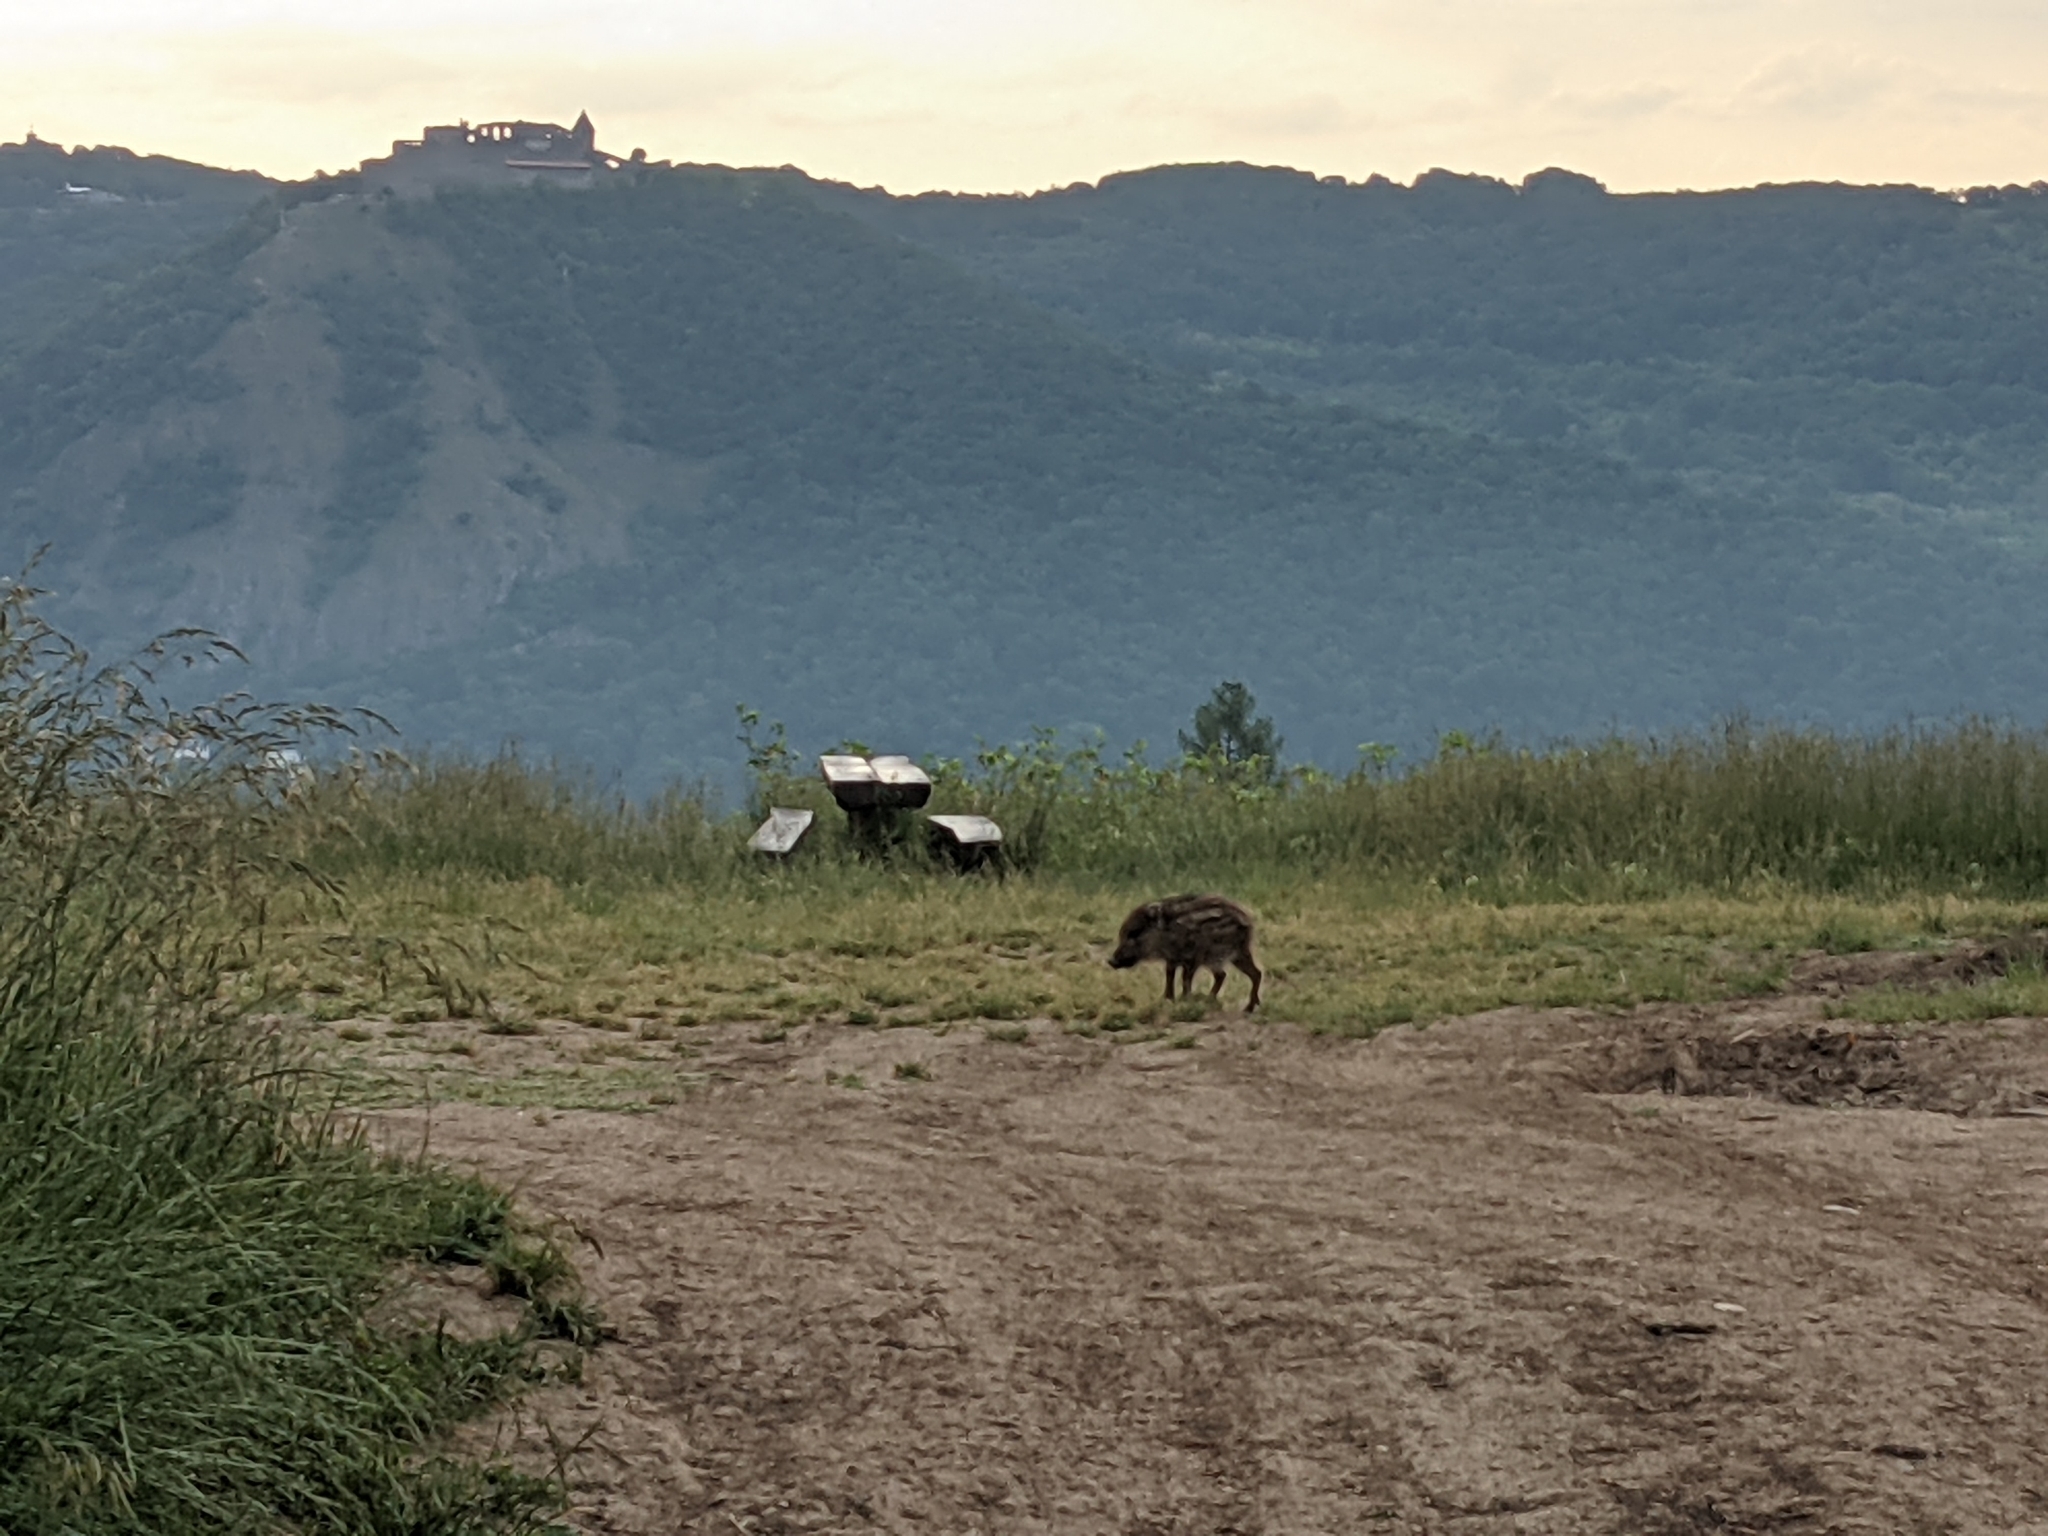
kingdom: Animalia
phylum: Chordata
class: Mammalia
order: Artiodactyla
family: Suidae
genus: Sus
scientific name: Sus scrofa
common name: Wild boar
